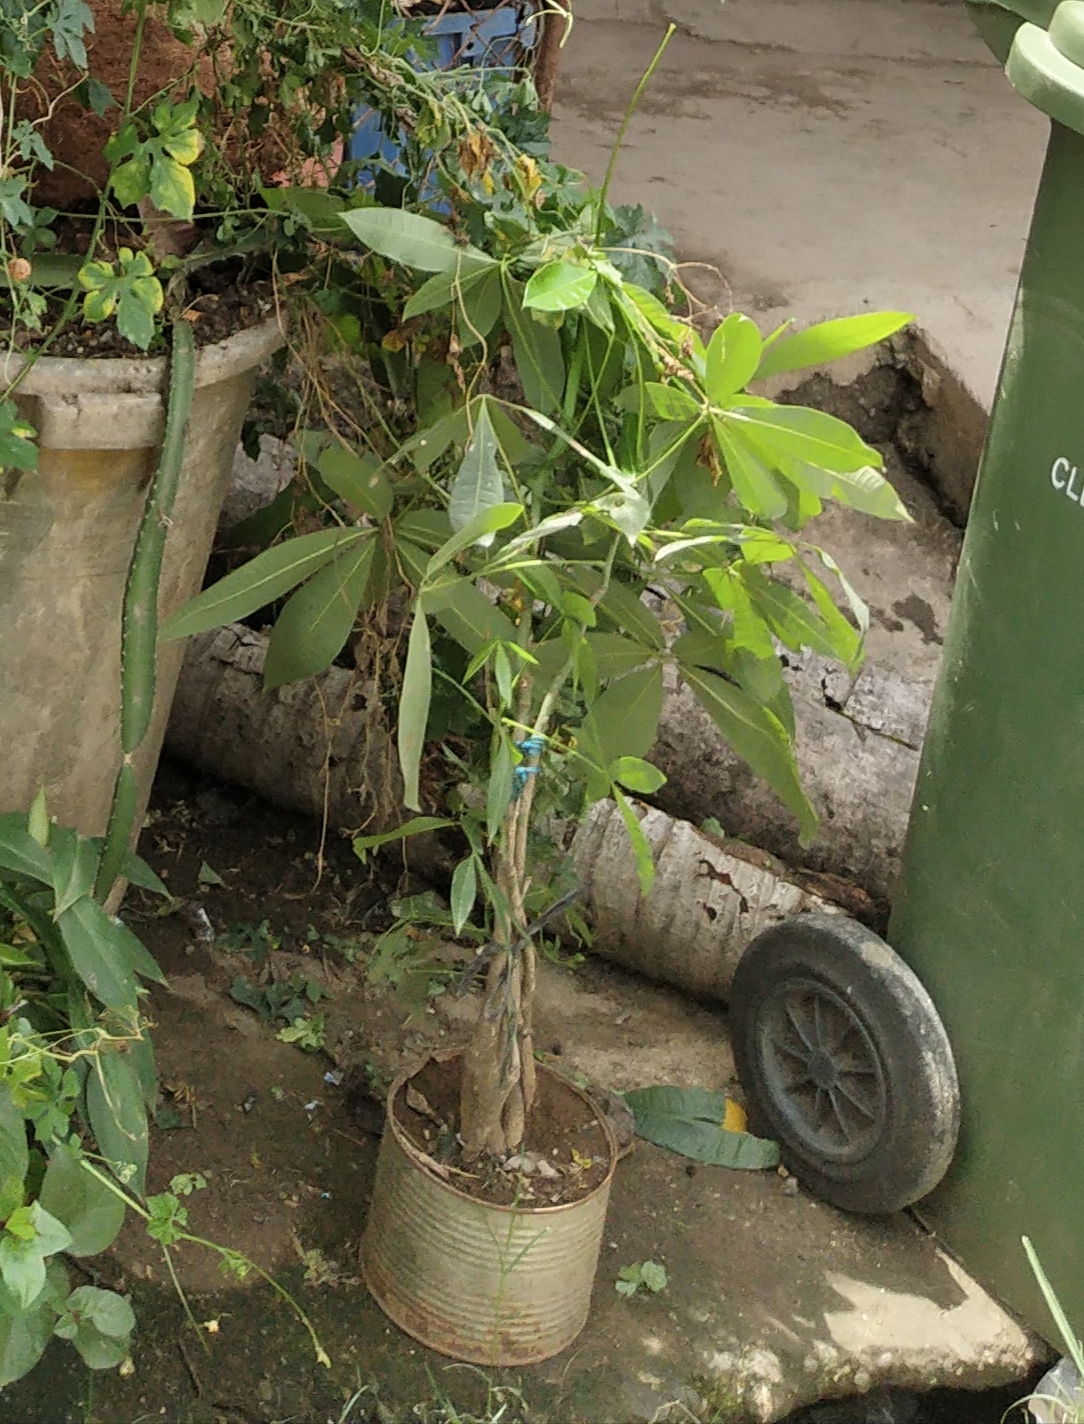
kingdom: Plantae
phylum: Tracheophyta
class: Magnoliopsida
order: Malvales
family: Malvaceae
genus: Pachira
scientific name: Pachira aquatica
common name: Provision-tree
